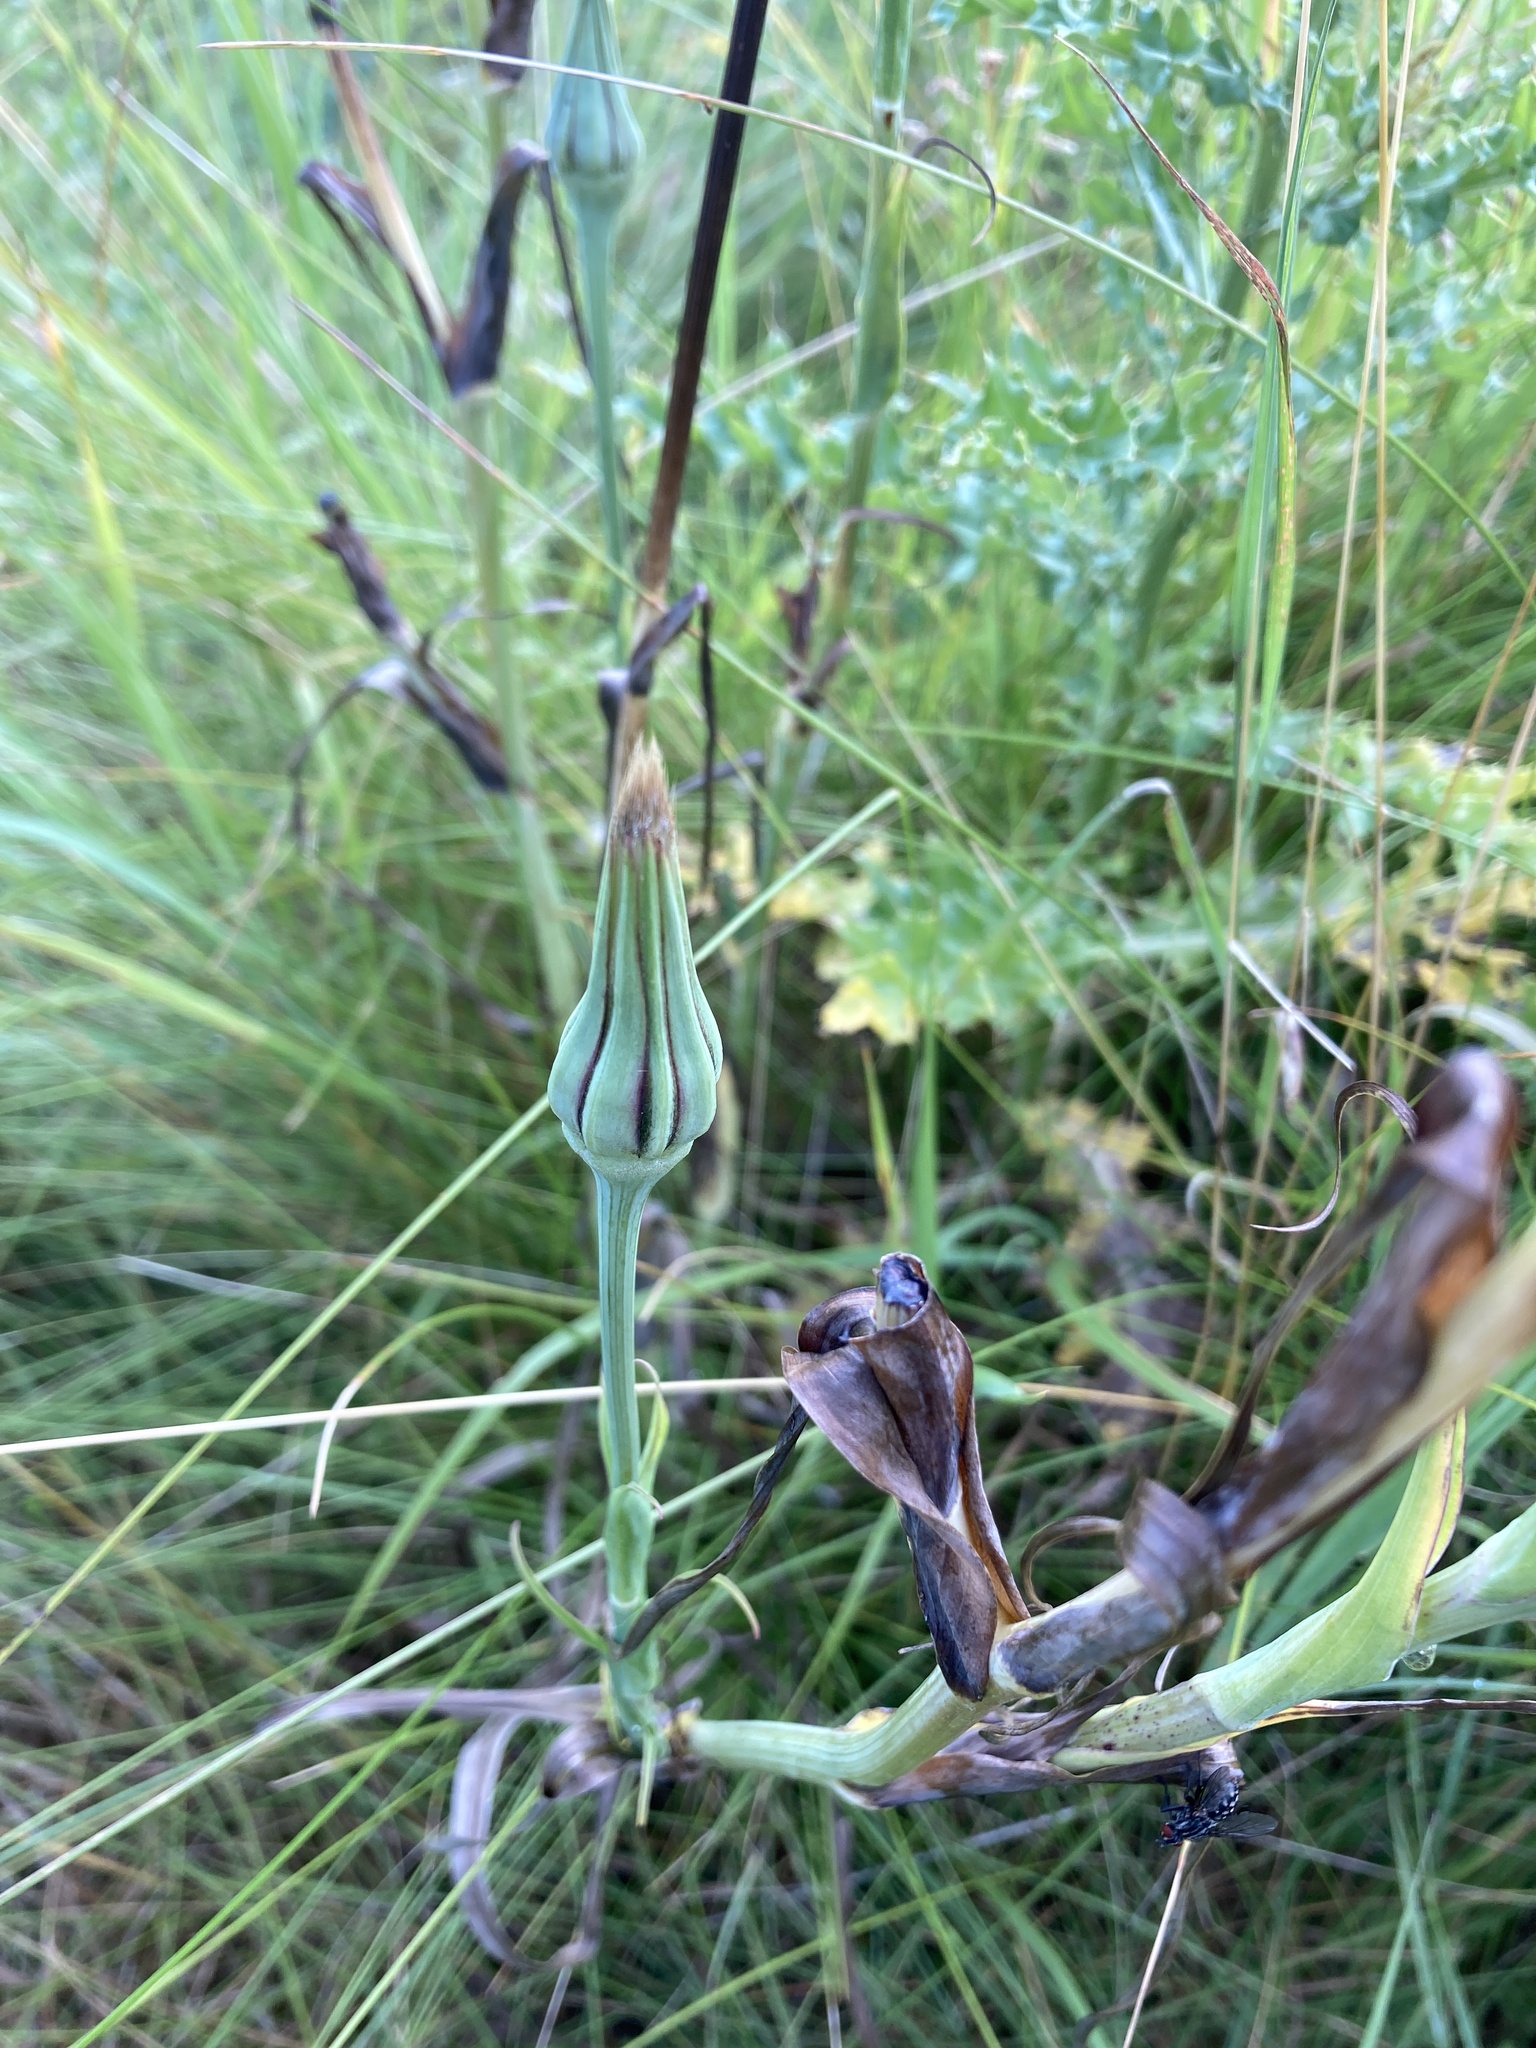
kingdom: Plantae
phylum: Tracheophyta
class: Magnoliopsida
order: Asterales
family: Asteraceae
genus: Tragopogon
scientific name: Tragopogon pratensis
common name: Goat's-beard
